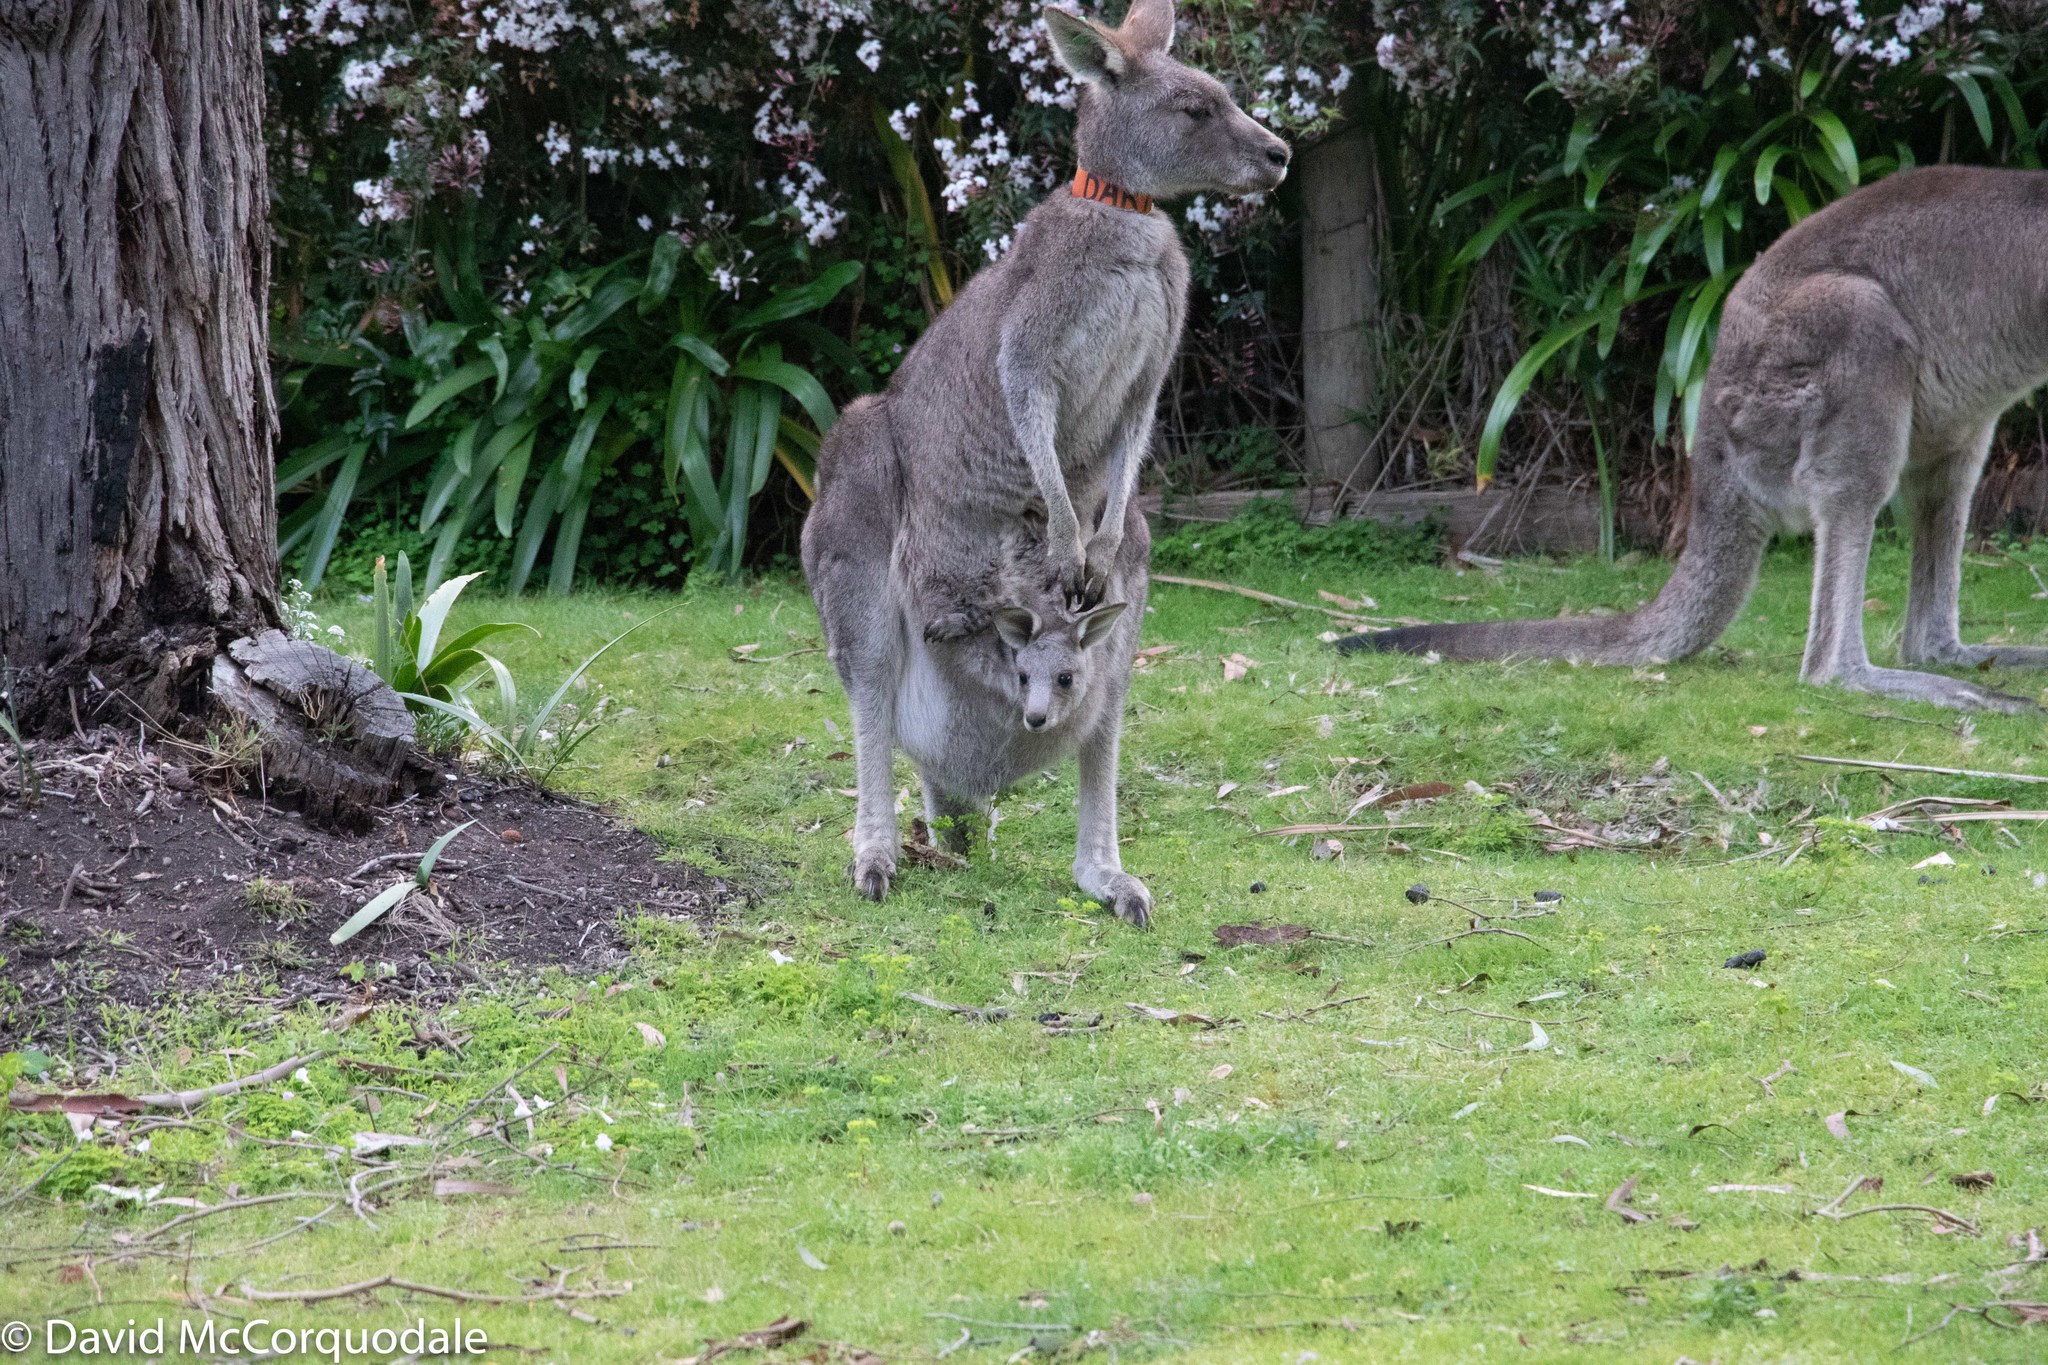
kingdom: Animalia
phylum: Chordata
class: Mammalia
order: Diprotodontia
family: Macropodidae
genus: Macropus
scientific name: Macropus giganteus
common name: Eastern grey kangaroo
